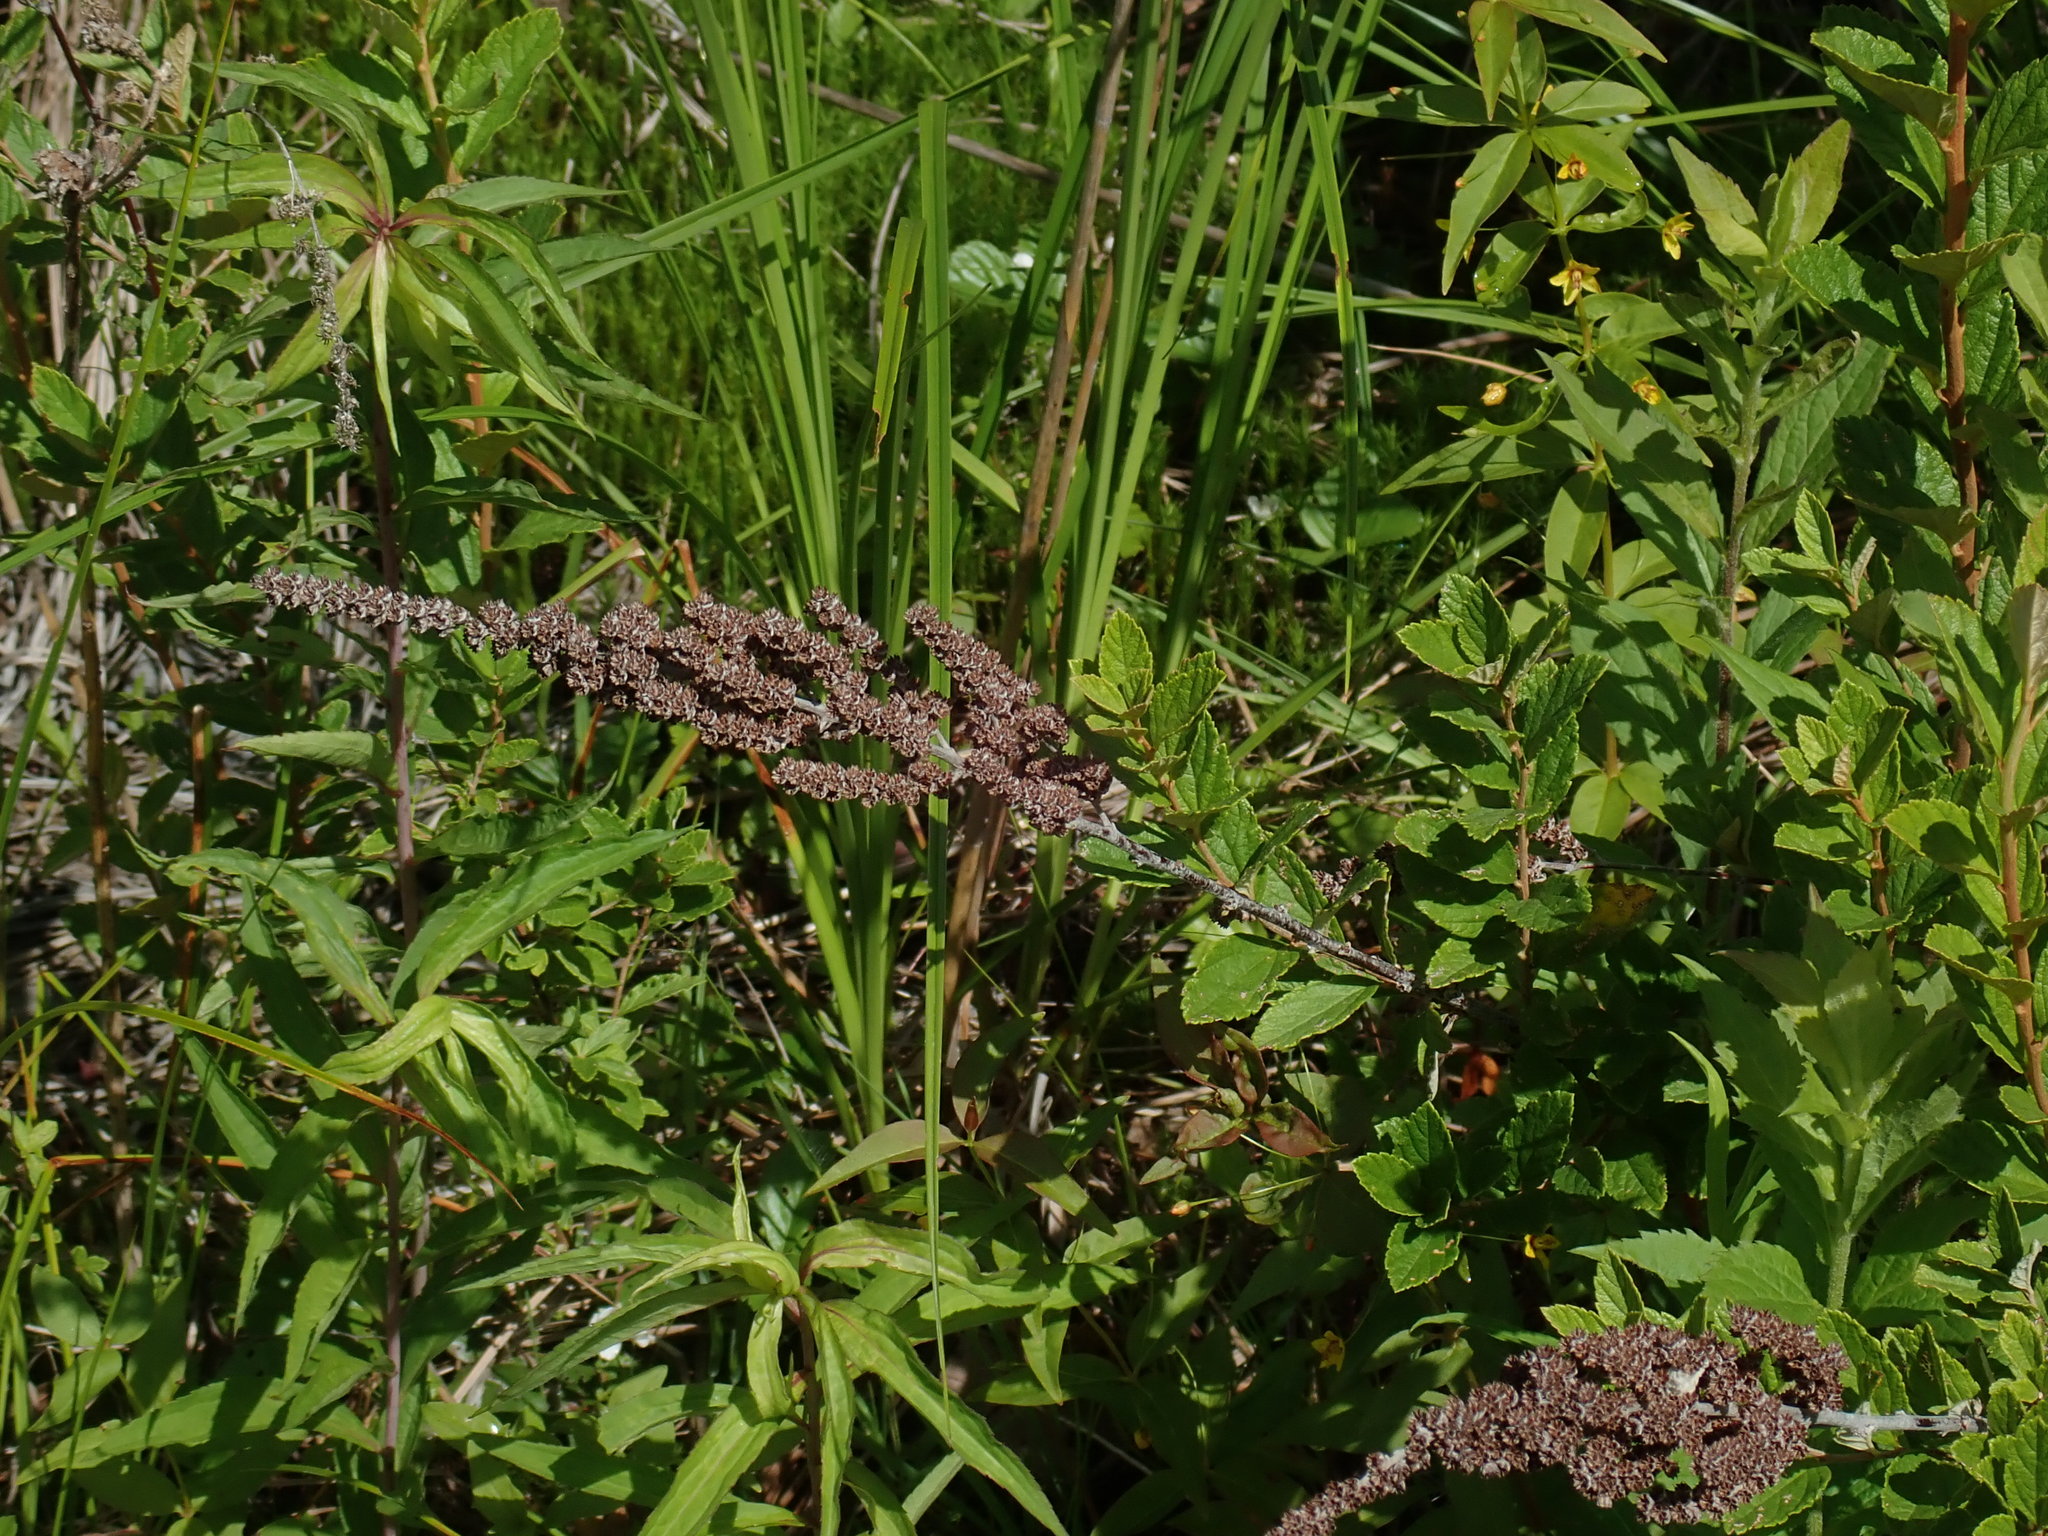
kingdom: Plantae
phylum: Tracheophyta
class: Magnoliopsida
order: Rosales
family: Rosaceae
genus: Spiraea
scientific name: Spiraea tomentosa
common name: Hardhack
